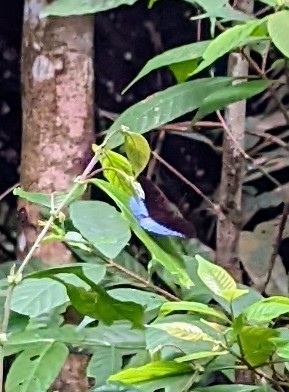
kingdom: Animalia
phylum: Arthropoda
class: Insecta
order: Lepidoptera
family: Nymphalidae
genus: Tanaecia
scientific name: Tanaecia iapis
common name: Horsfield's baron
